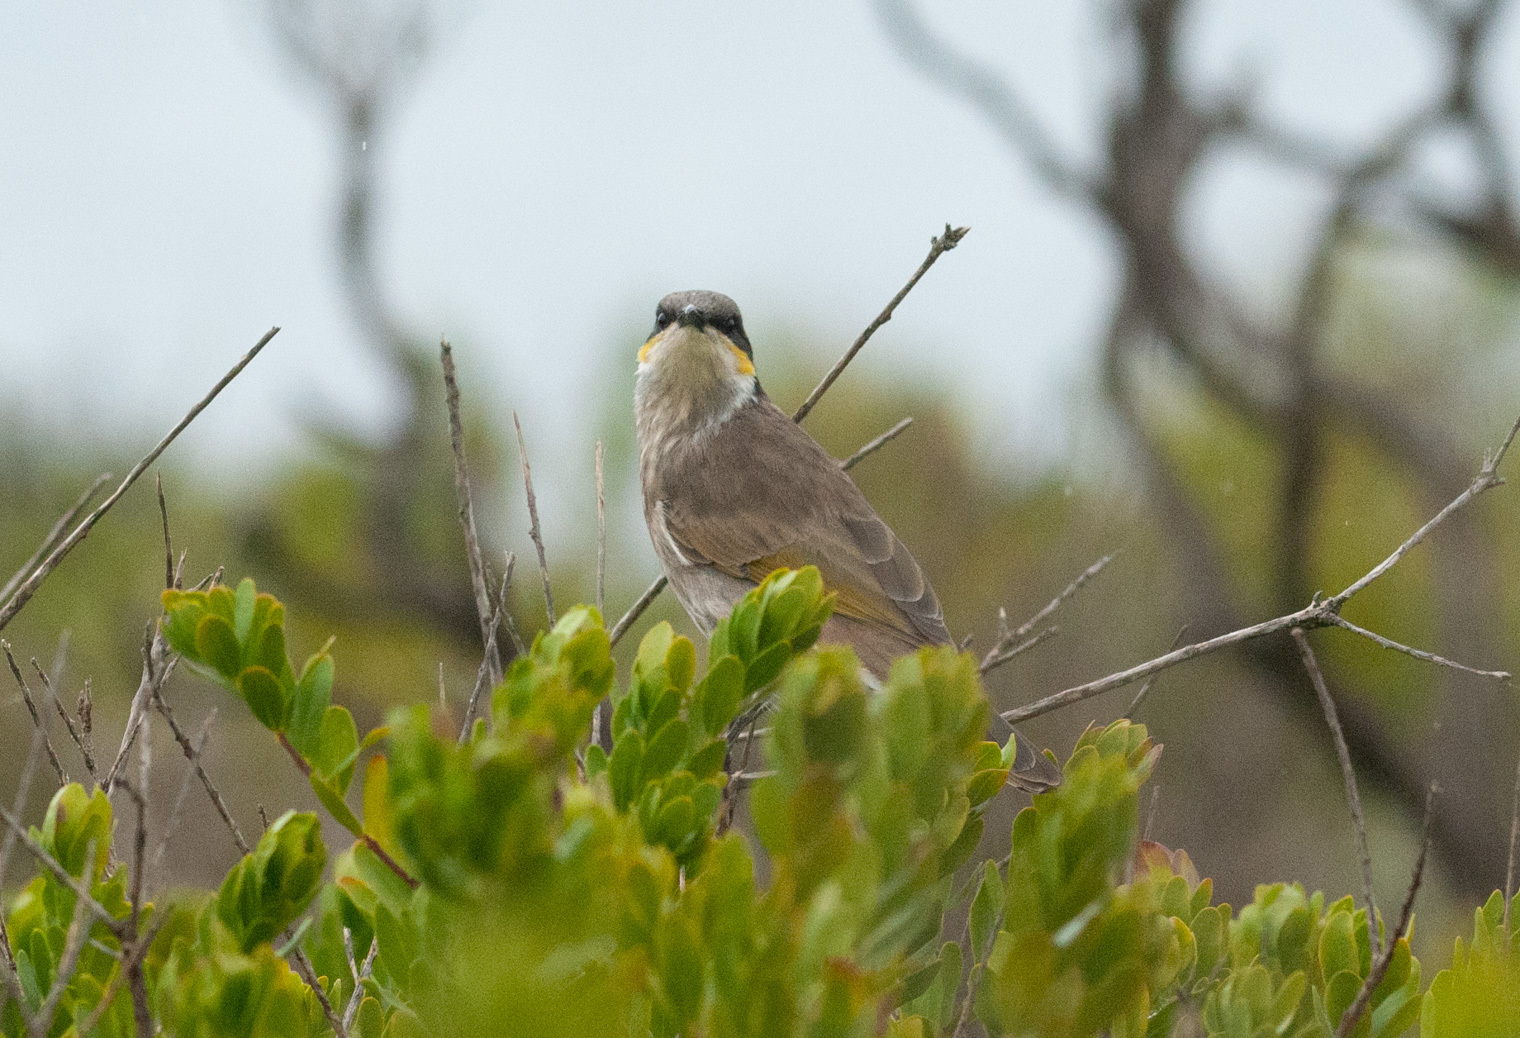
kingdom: Animalia
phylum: Chordata
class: Aves
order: Passeriformes
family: Meliphagidae
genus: Gavicalis
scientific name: Gavicalis virescens
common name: Singing honeyeater
